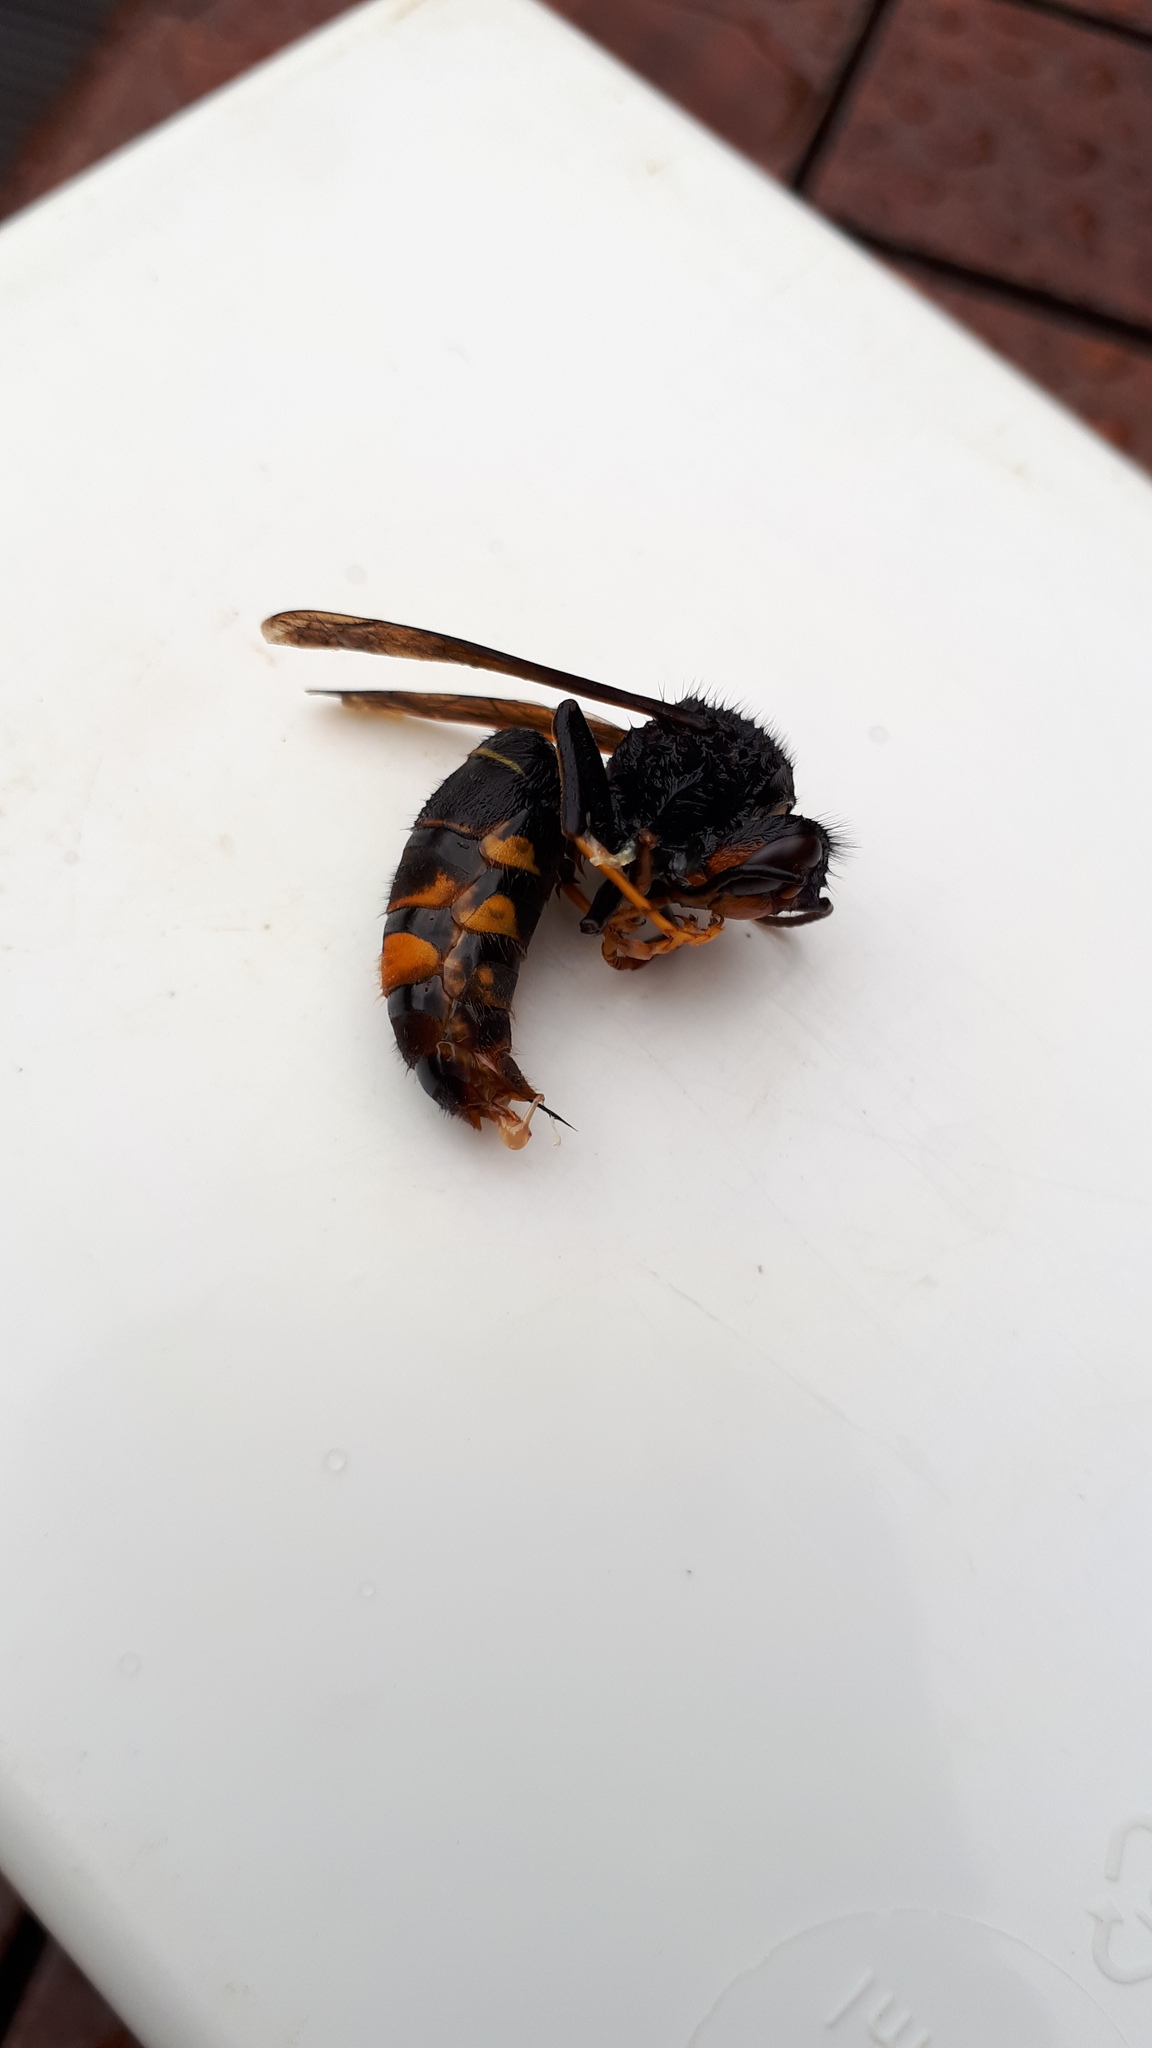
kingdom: Animalia
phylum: Arthropoda
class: Insecta
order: Hymenoptera
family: Vespidae
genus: Vespa
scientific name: Vespa velutina
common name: Asian hornet
